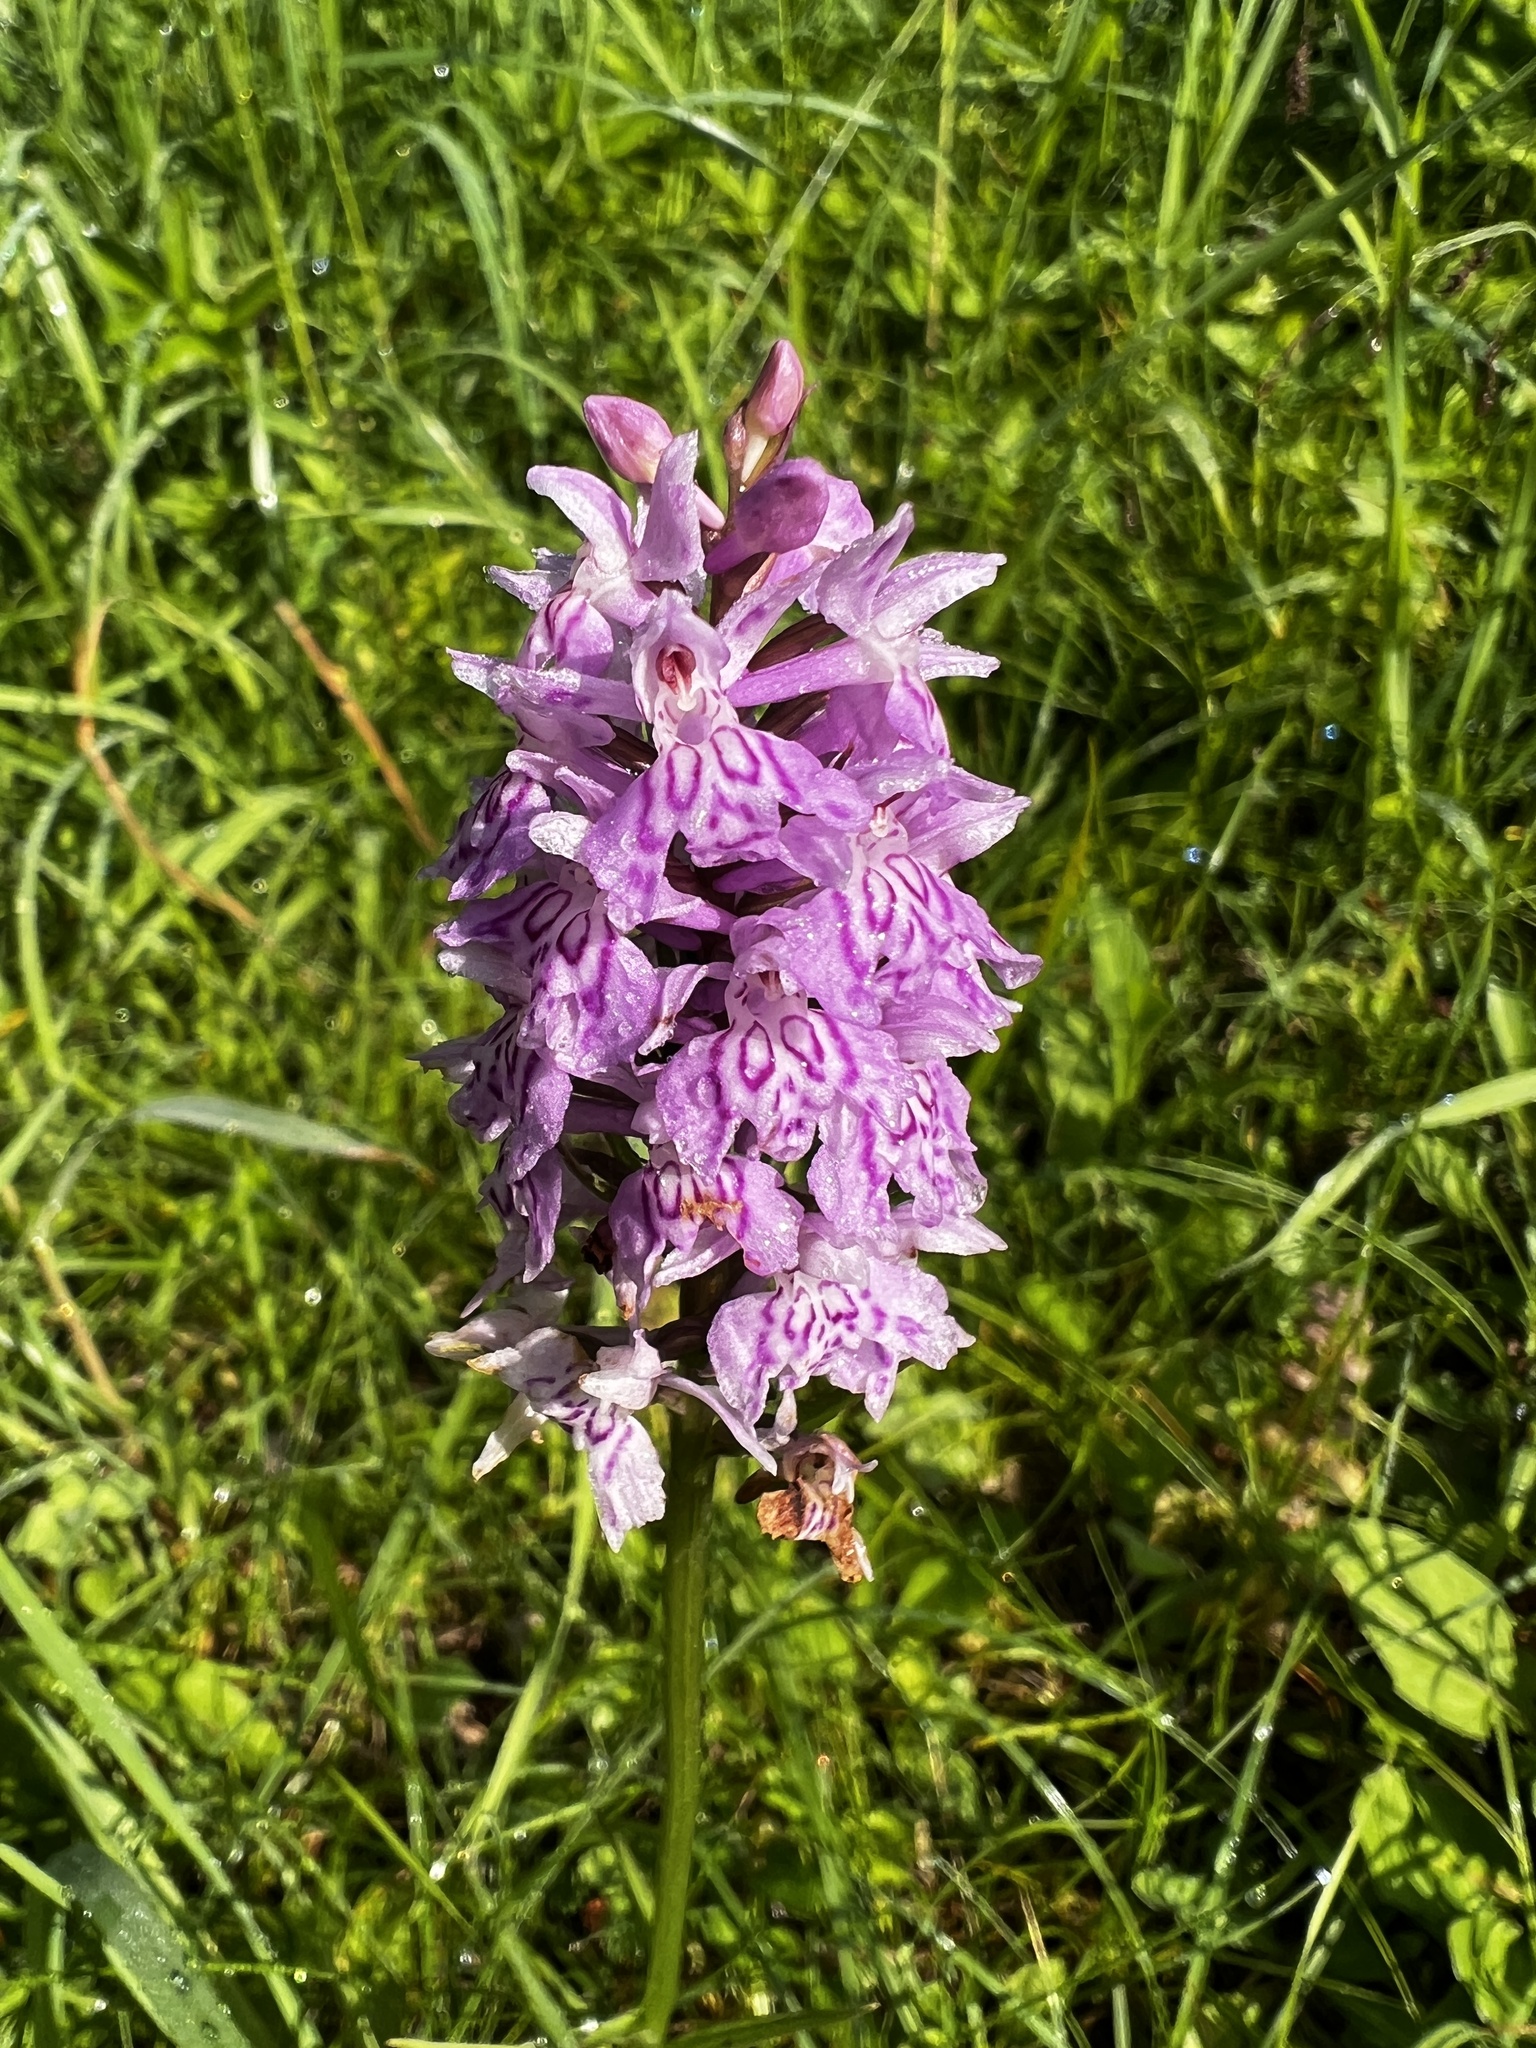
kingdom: Plantae
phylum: Tracheophyta
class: Liliopsida
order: Asparagales
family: Orchidaceae
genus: Dactylorhiza
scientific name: Dactylorhiza maculata
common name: Heath spotted-orchid
